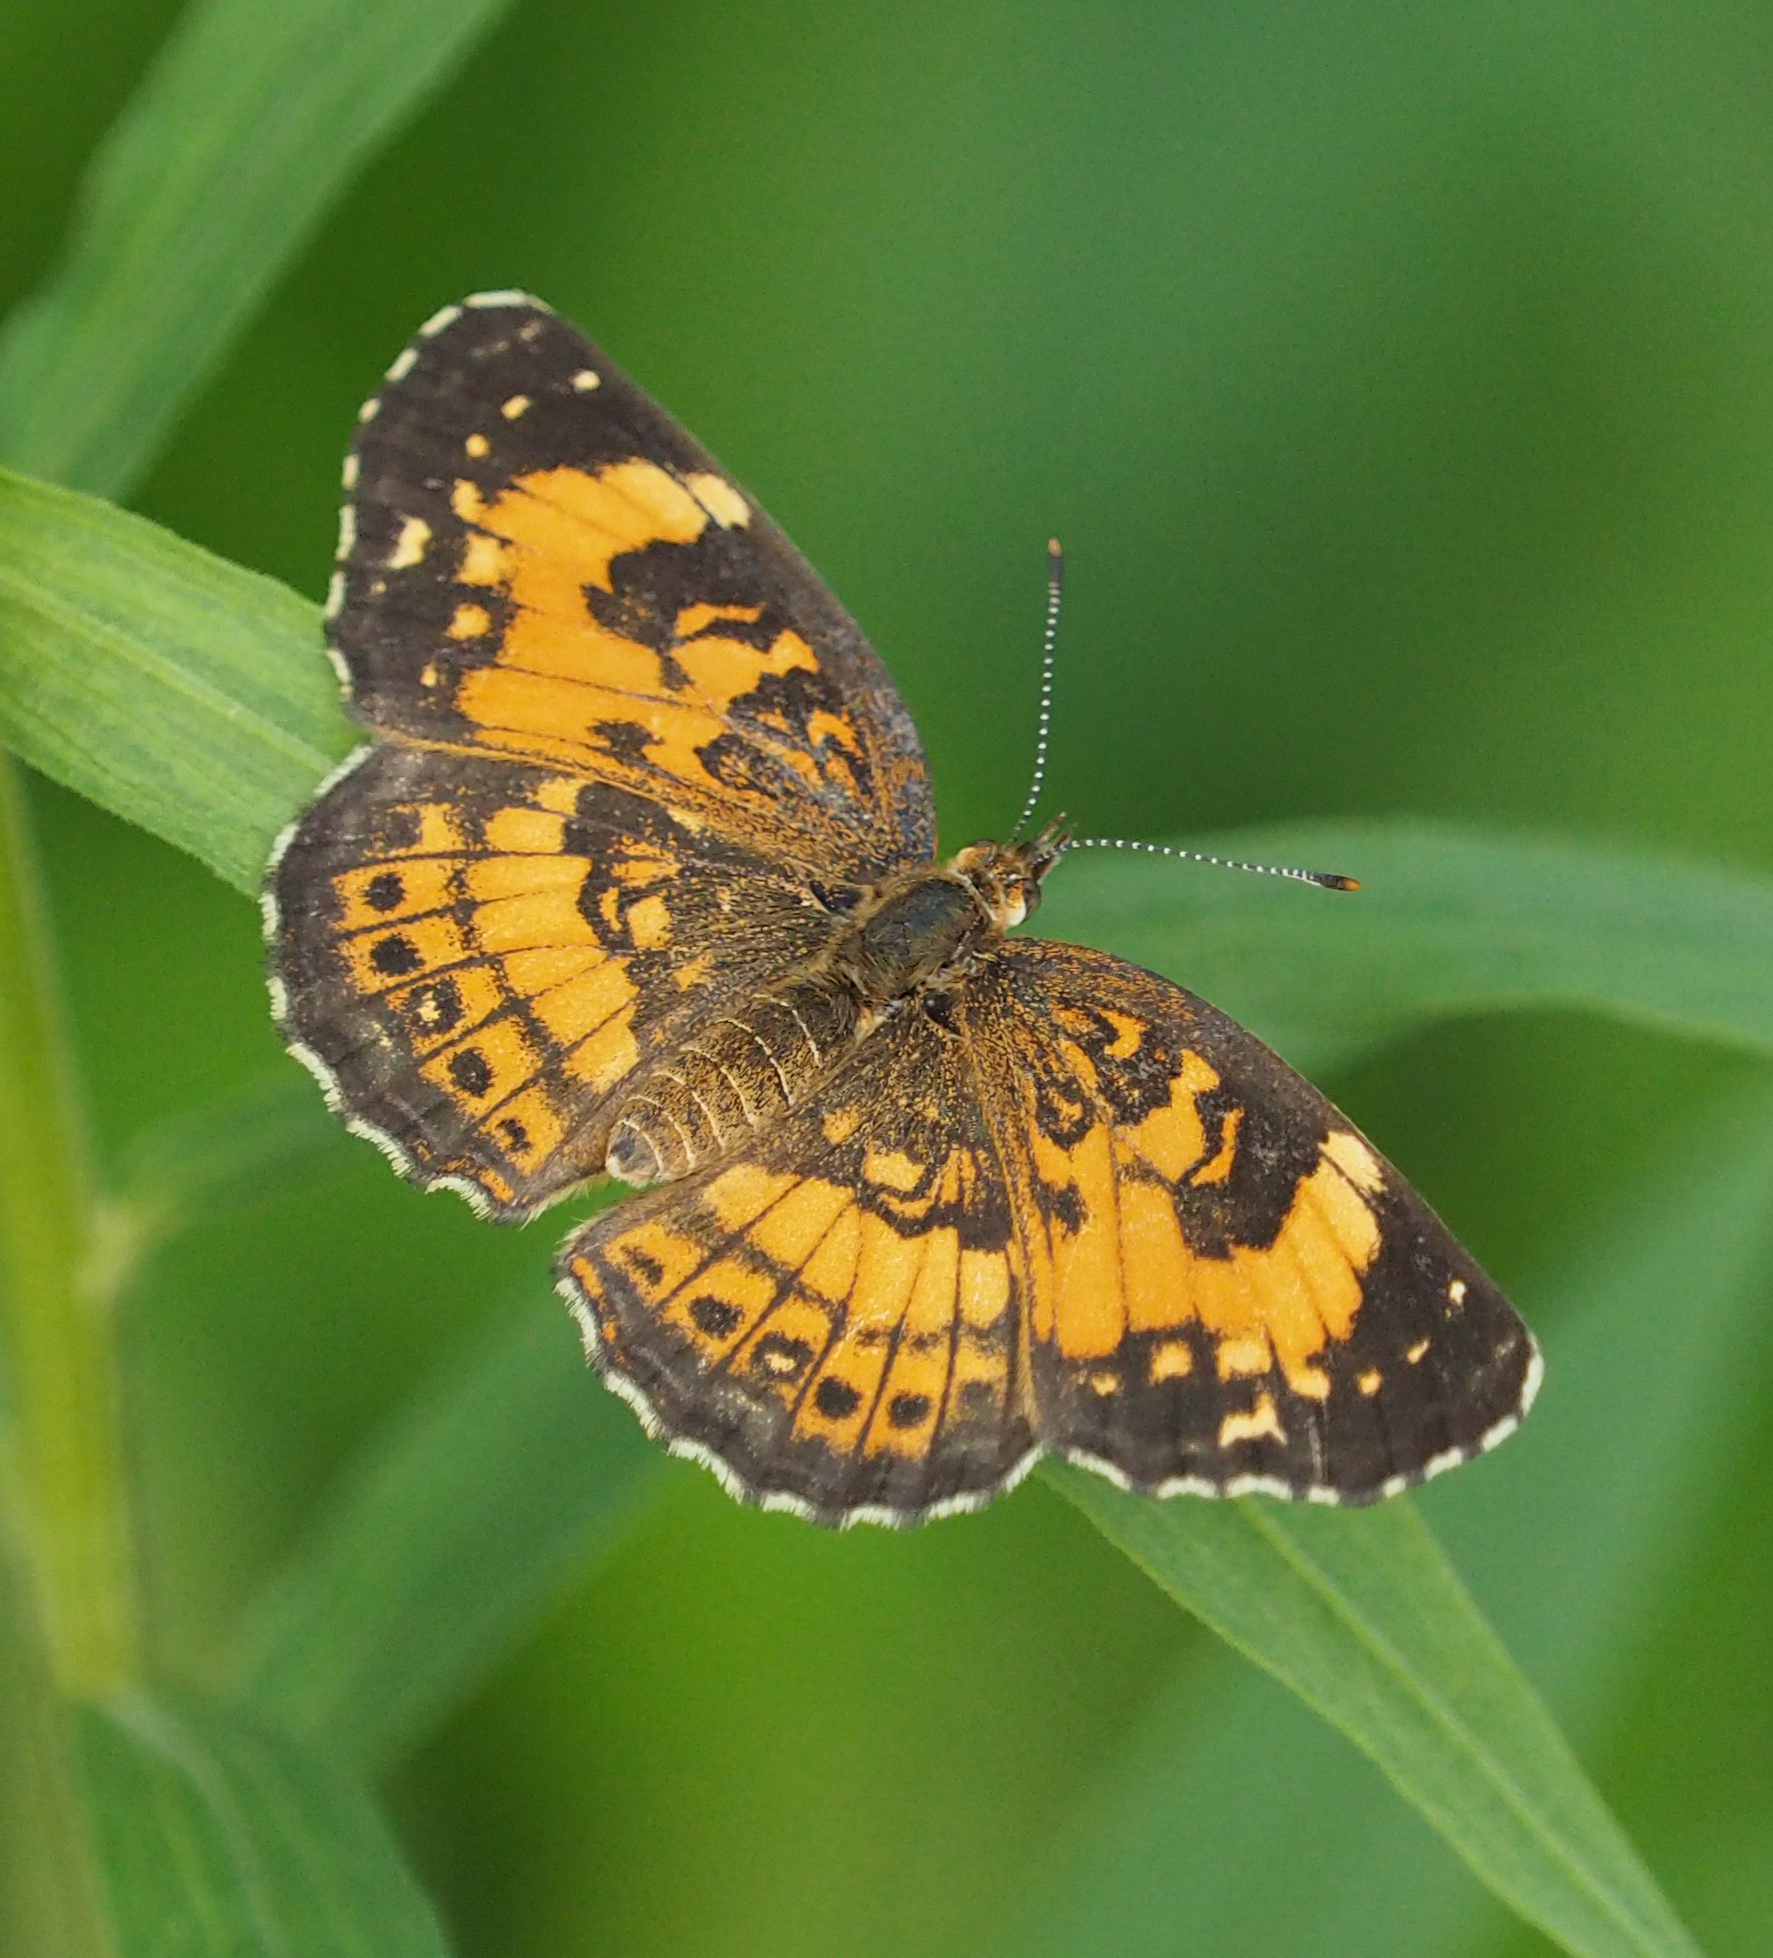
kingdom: Animalia
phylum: Arthropoda
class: Insecta
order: Lepidoptera
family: Nymphalidae
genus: Chlosyne
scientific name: Chlosyne nycteis
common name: Silvery checkerspot
